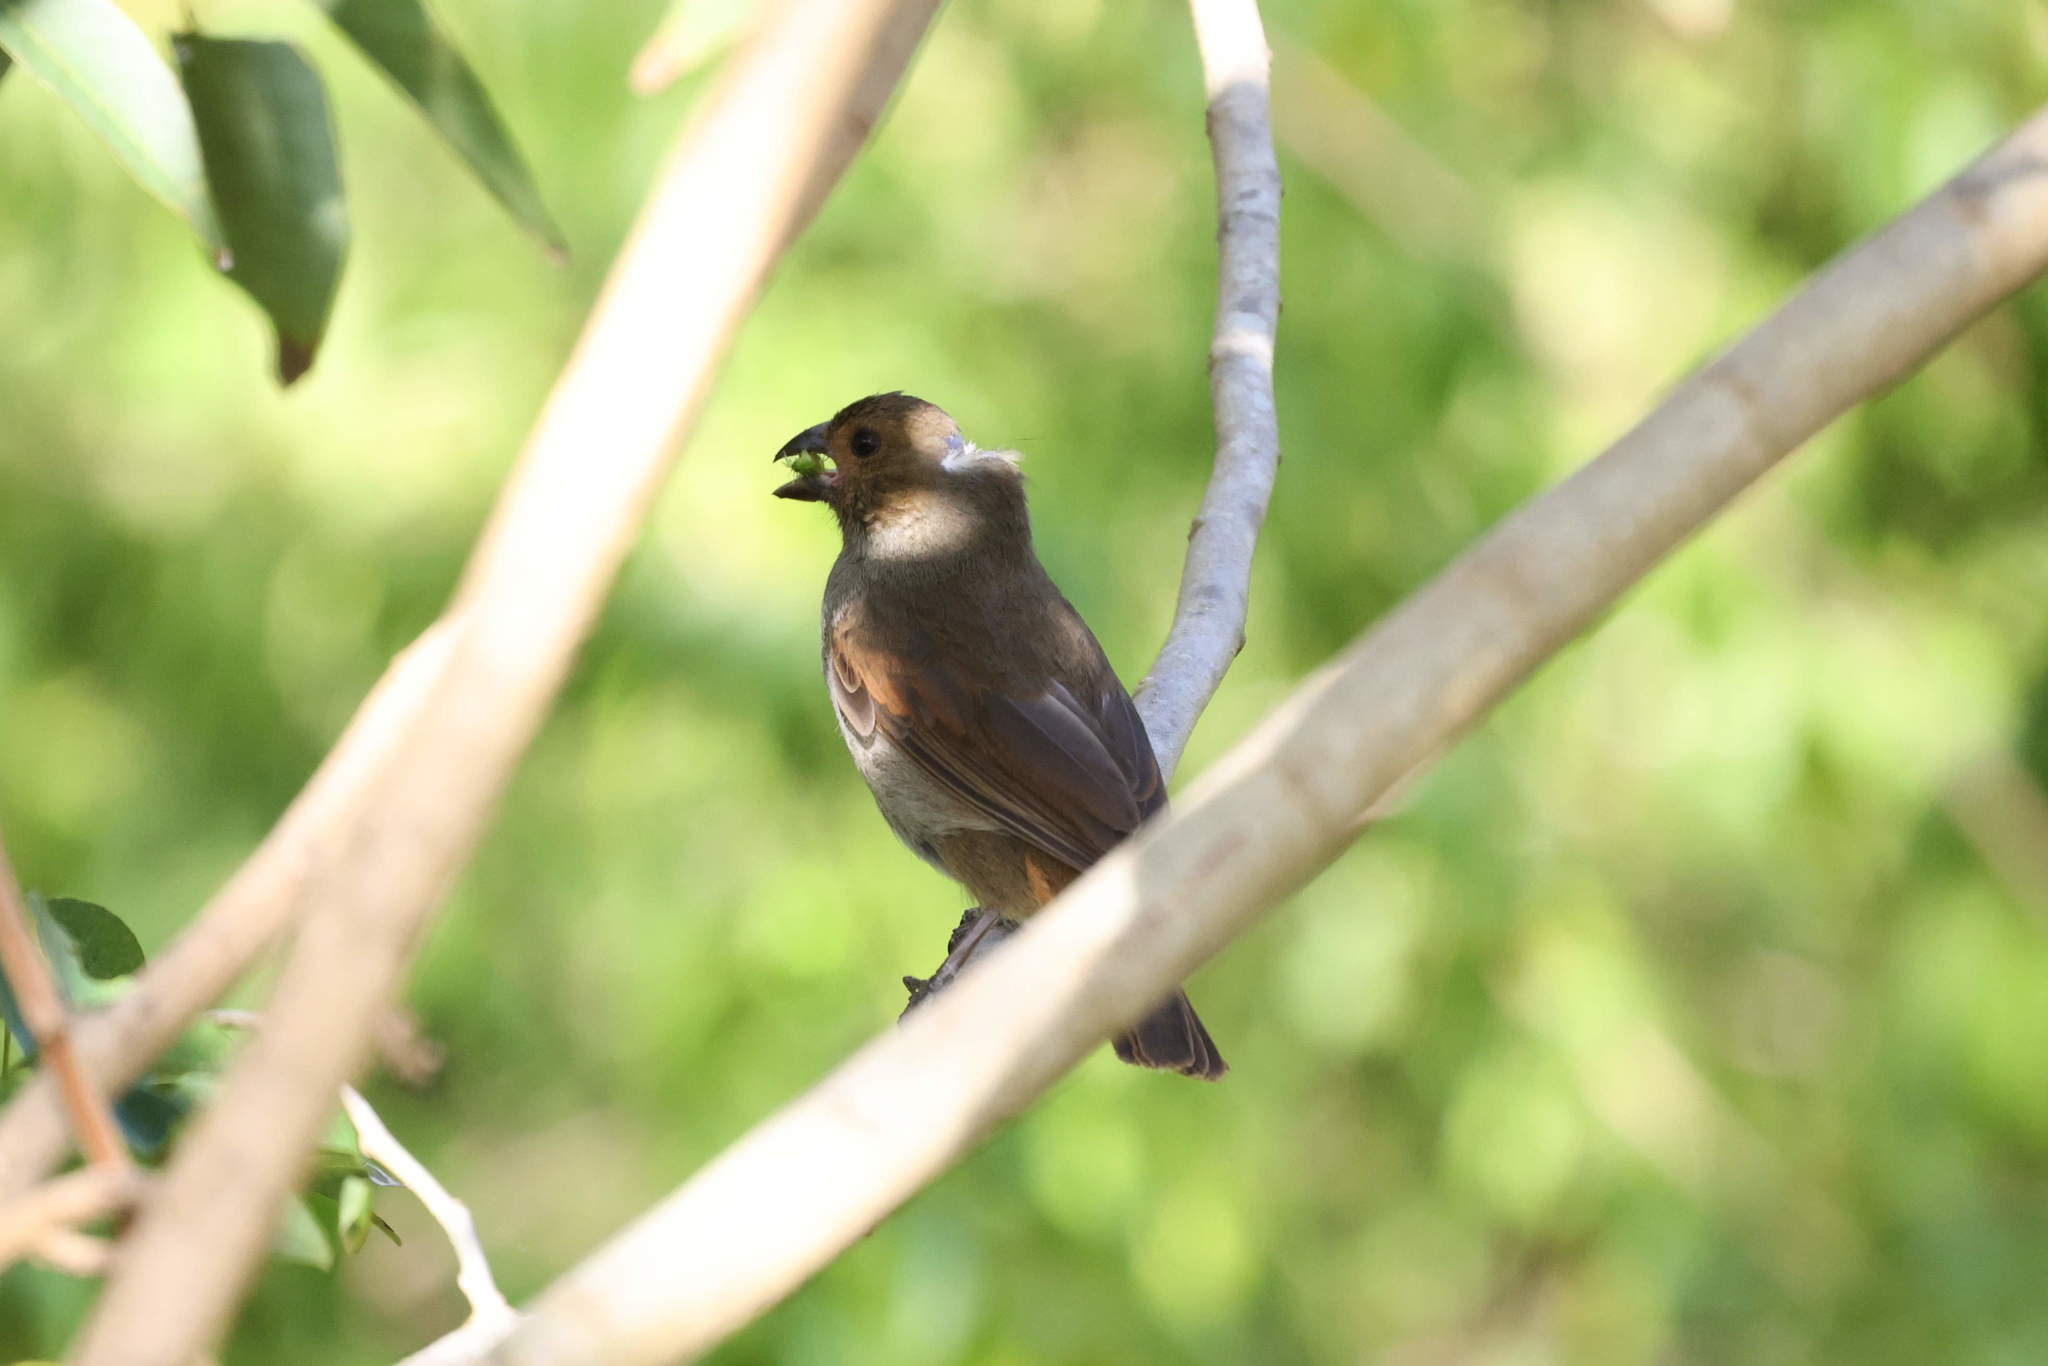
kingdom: Animalia
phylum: Chordata
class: Aves
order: Passeriformes
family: Thraupidae
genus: Loxigilla
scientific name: Loxigilla noctis
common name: Lesser antillean bullfinch
